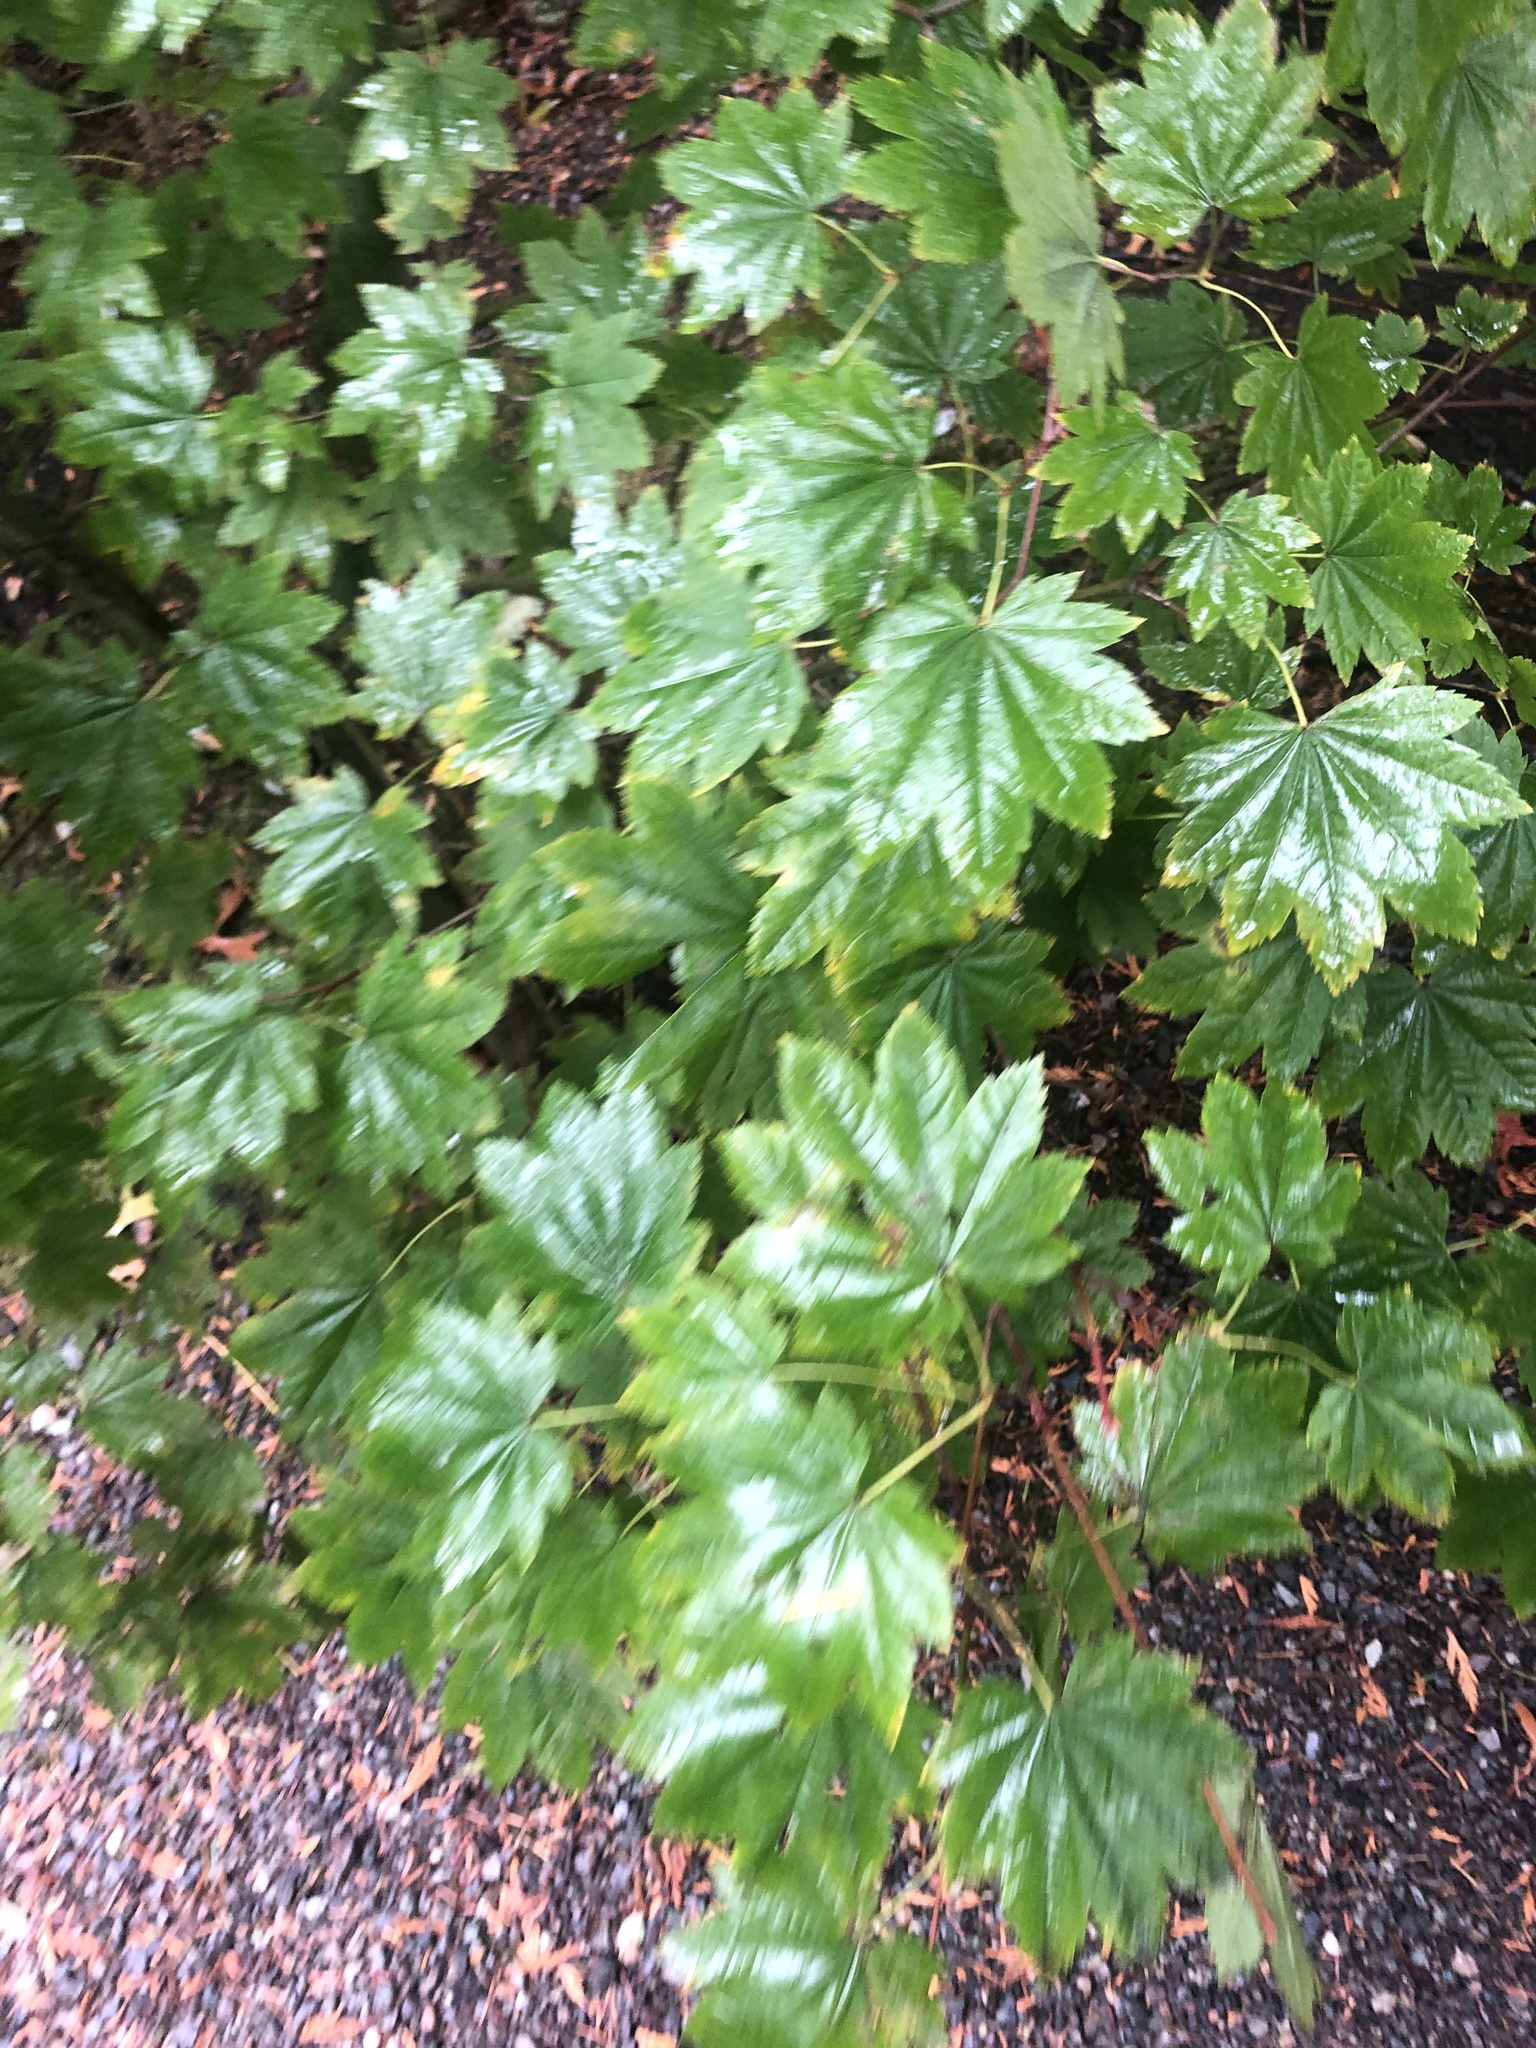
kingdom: Plantae
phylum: Tracheophyta
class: Magnoliopsida
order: Sapindales
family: Sapindaceae
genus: Acer
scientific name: Acer circinatum
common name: Vine maple
